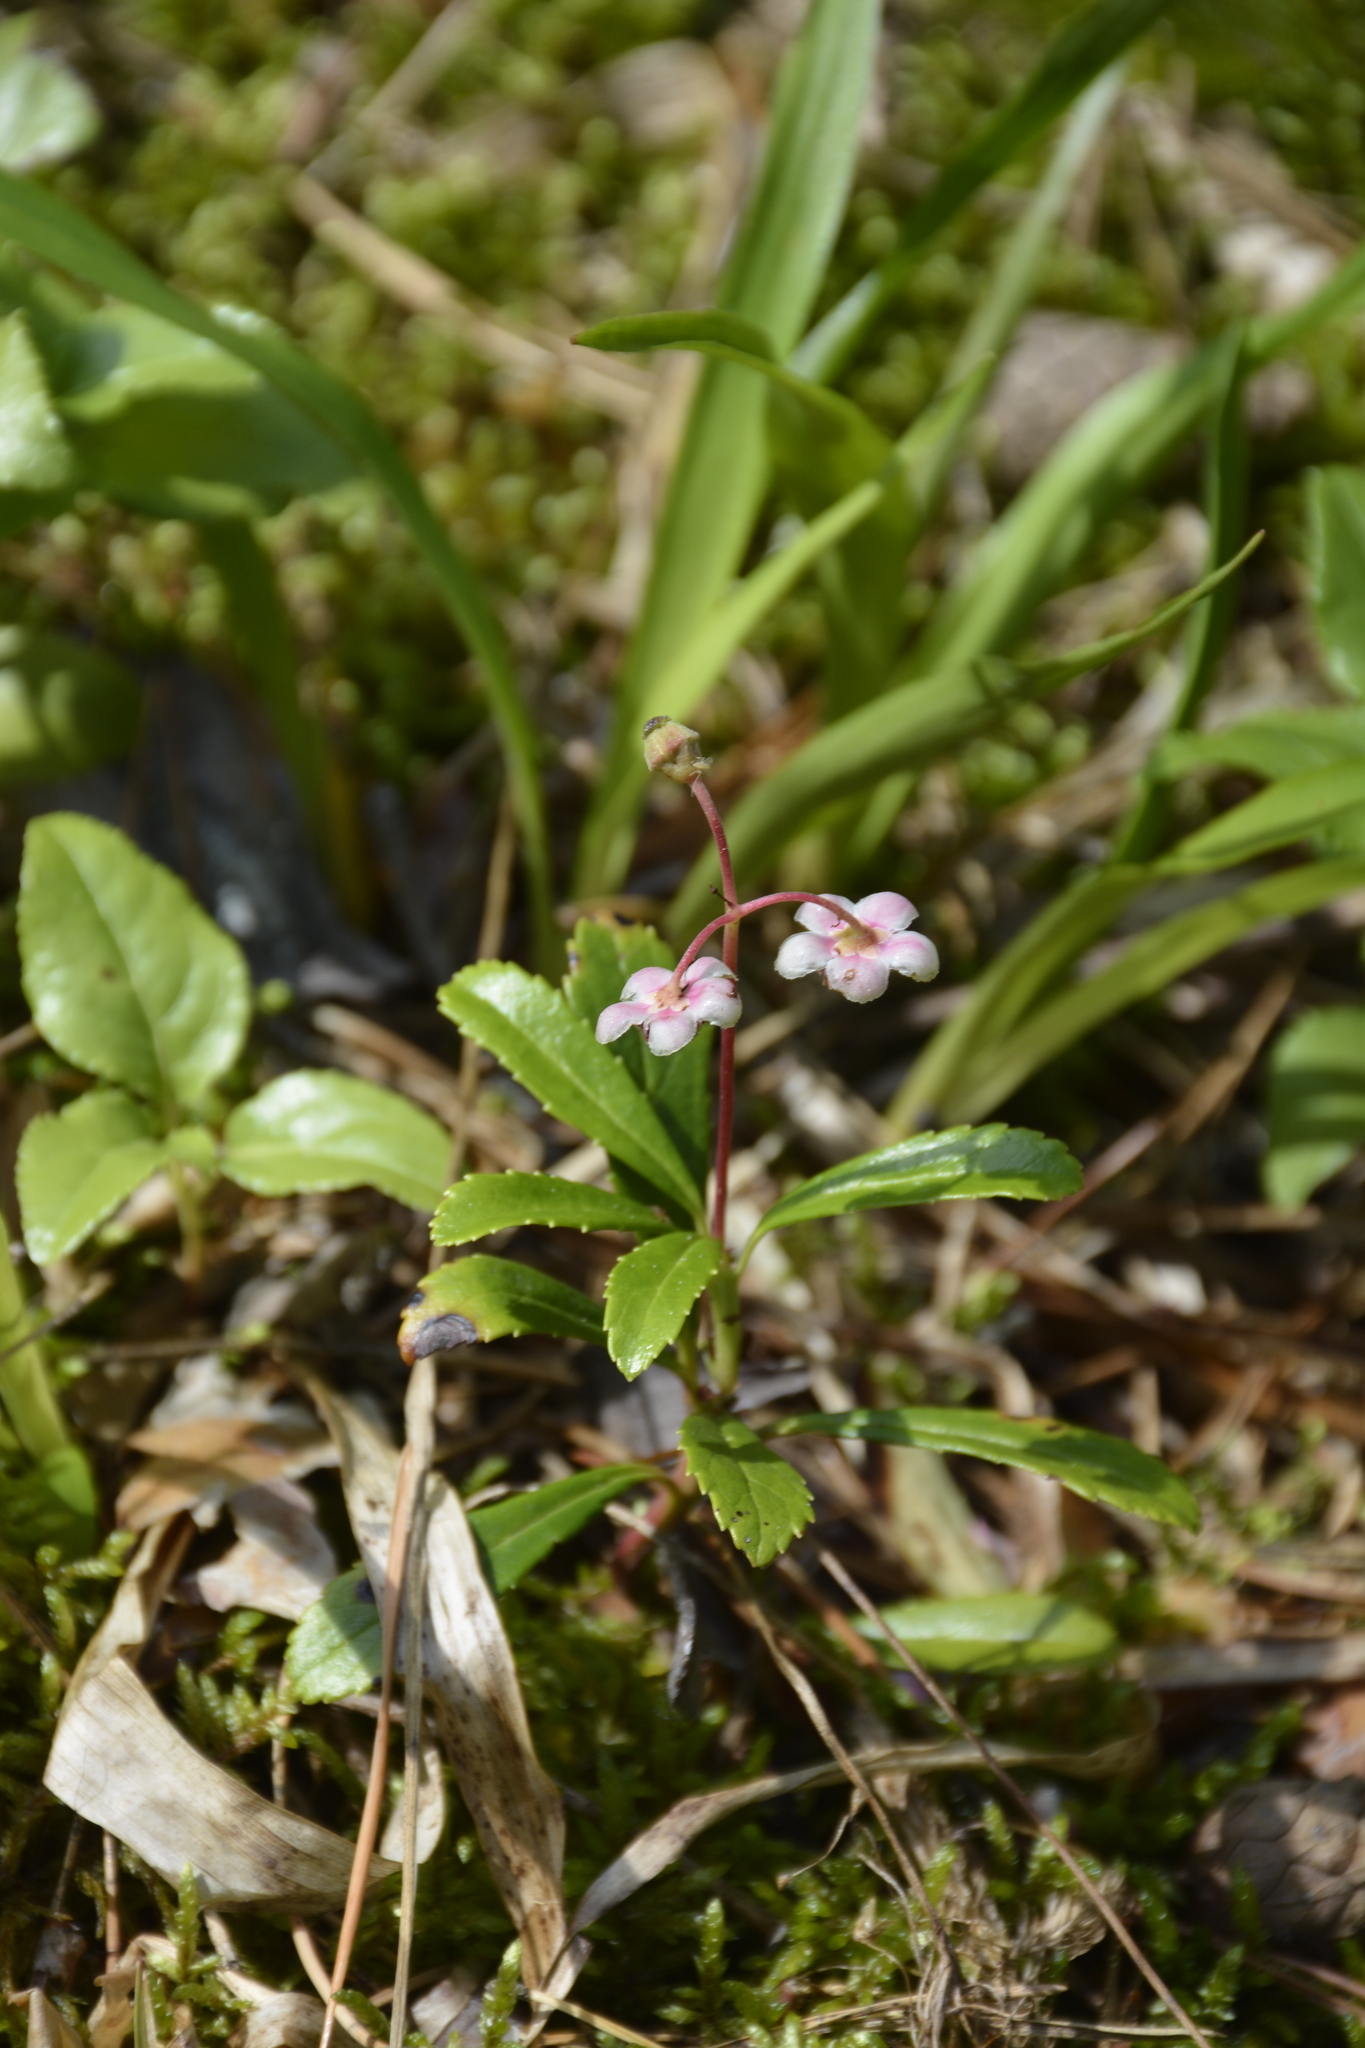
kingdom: Plantae
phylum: Tracheophyta
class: Magnoliopsida
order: Ericales
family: Ericaceae
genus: Chimaphila
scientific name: Chimaphila umbellata
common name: Pipsissewa
